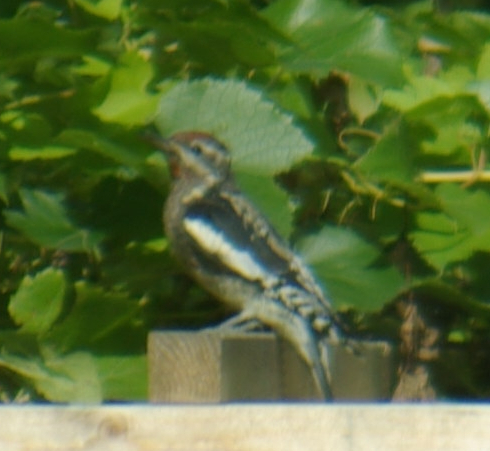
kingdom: Animalia
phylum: Chordata
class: Aves
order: Piciformes
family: Picidae
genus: Sphyrapicus
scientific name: Sphyrapicus varius
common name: Yellow-bellied sapsucker
